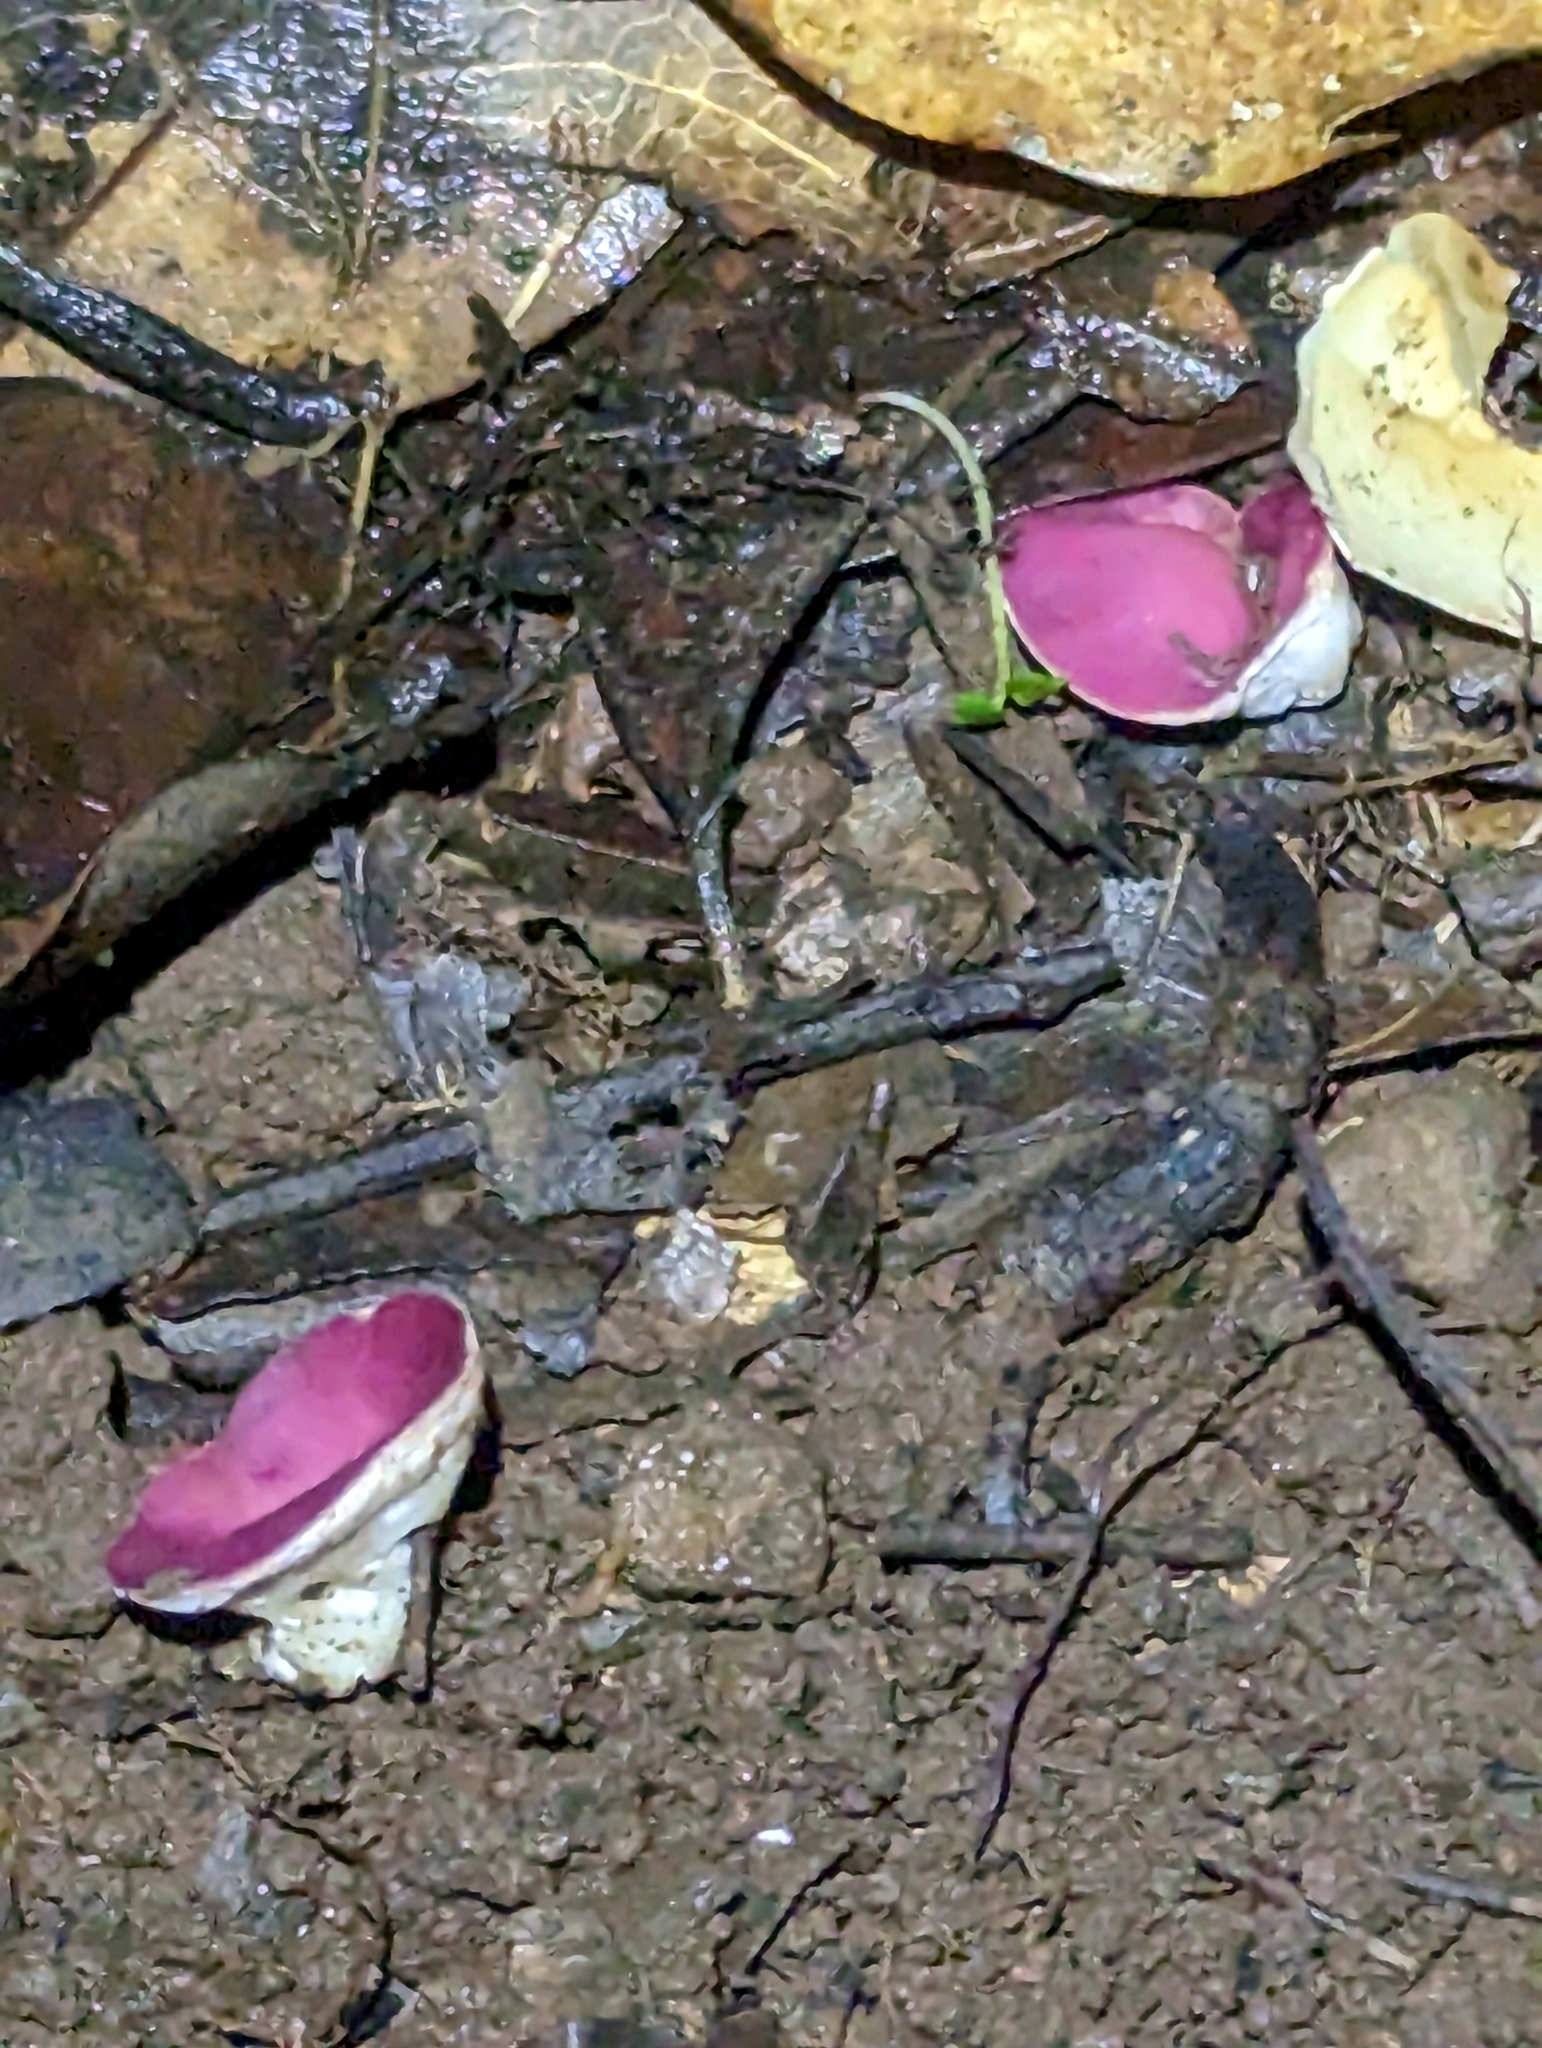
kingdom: Fungi
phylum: Ascomycota
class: Pezizomycetes
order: Pezizales
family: Sarcoscyphaceae
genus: Phillipsia
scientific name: Phillipsia subpurpurea
